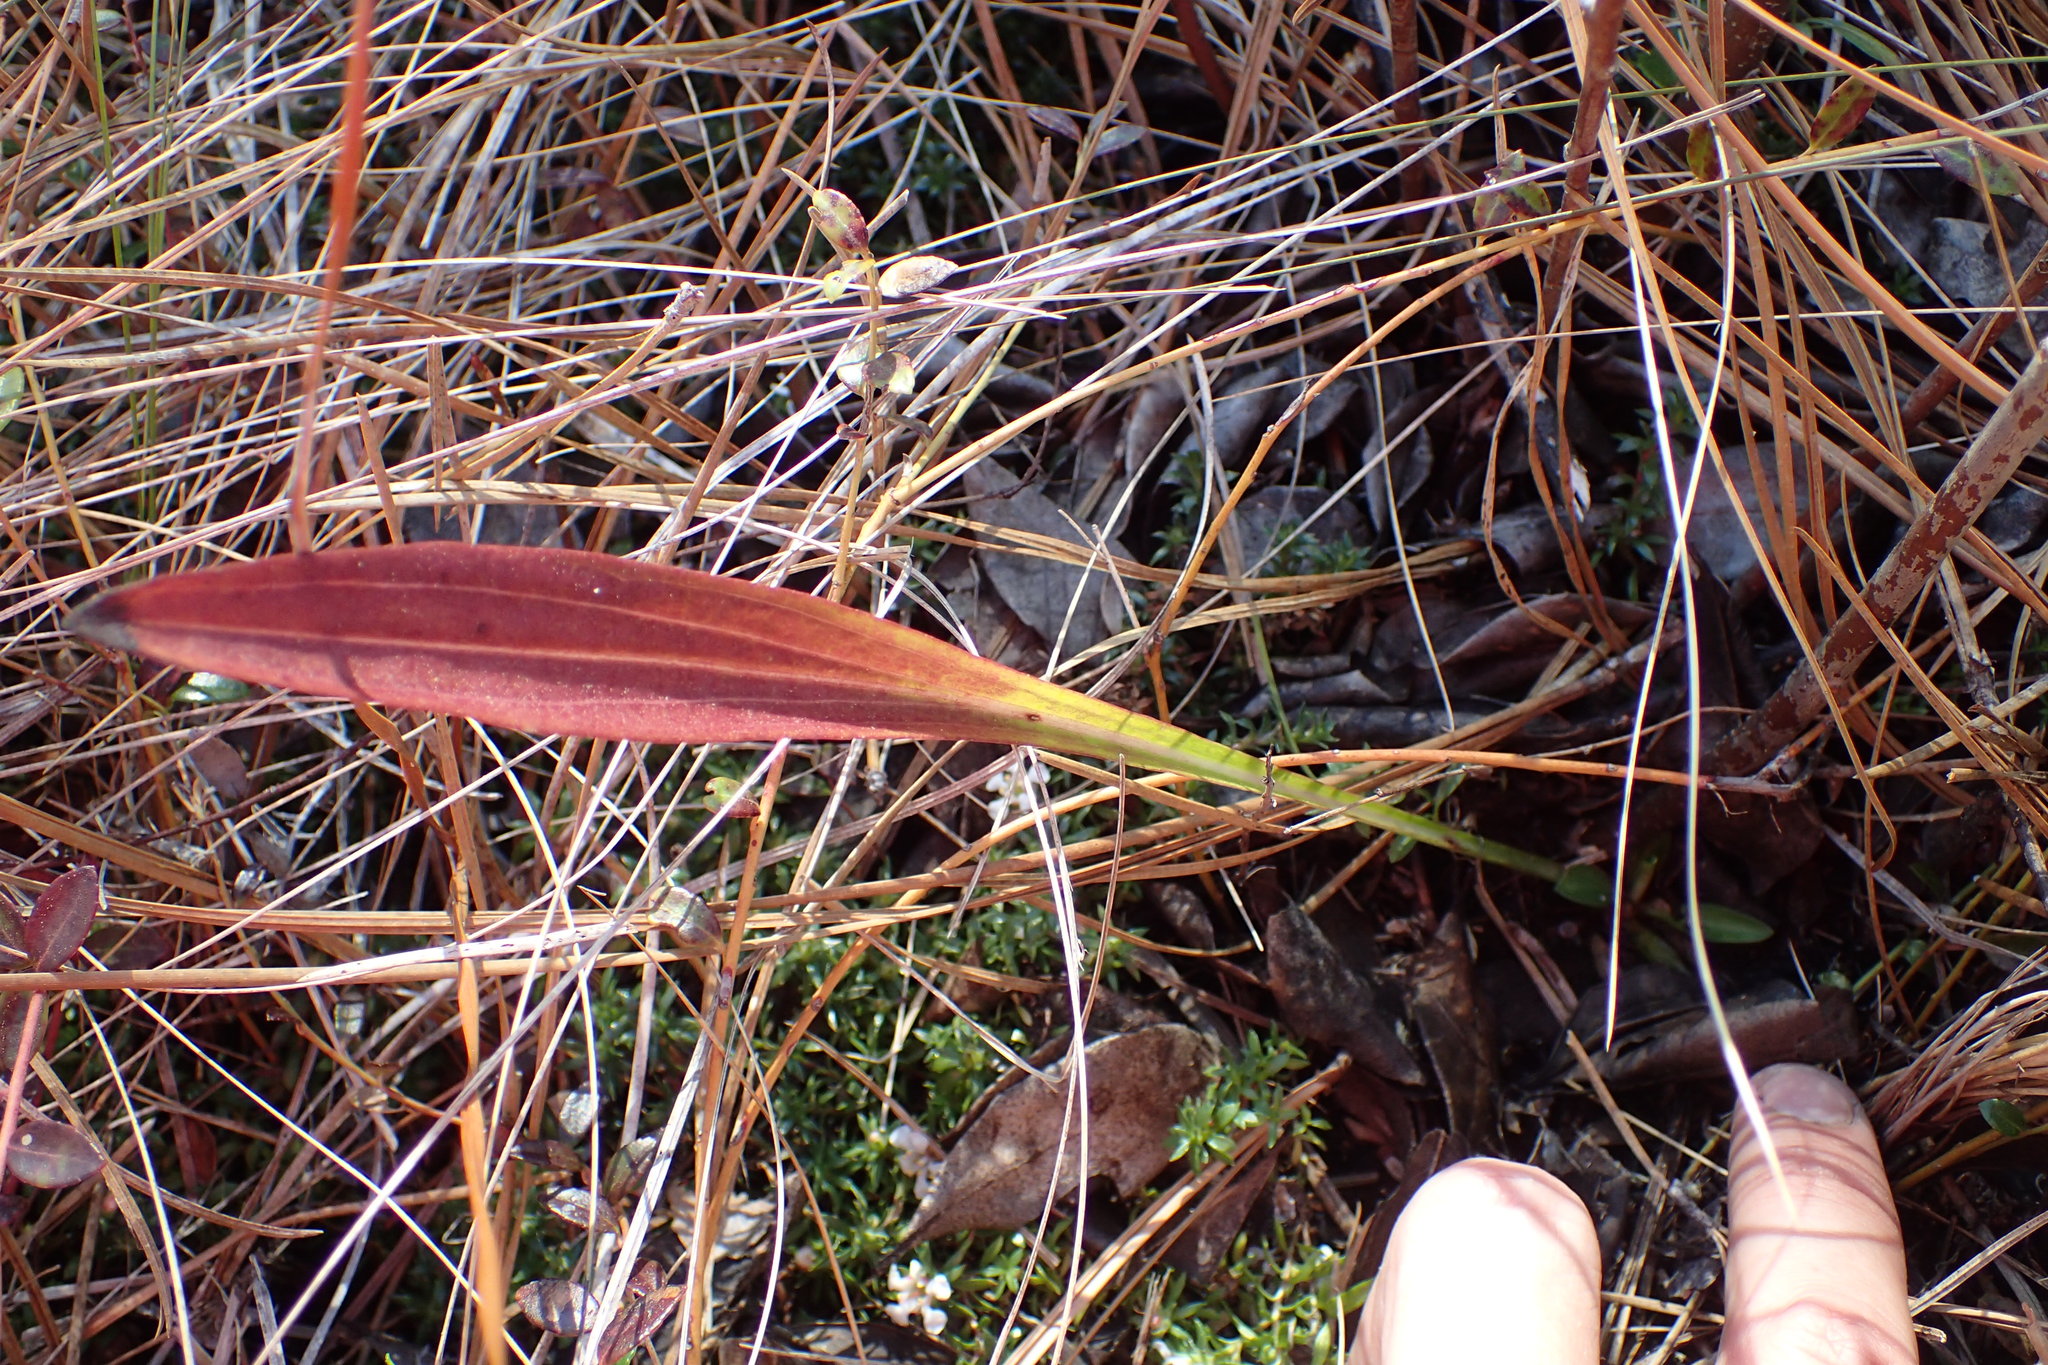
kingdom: Plantae
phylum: Tracheophyta
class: Magnoliopsida
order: Asterales
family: Asteraceae
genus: Carphephorus
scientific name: Carphephorus odoratissimus
